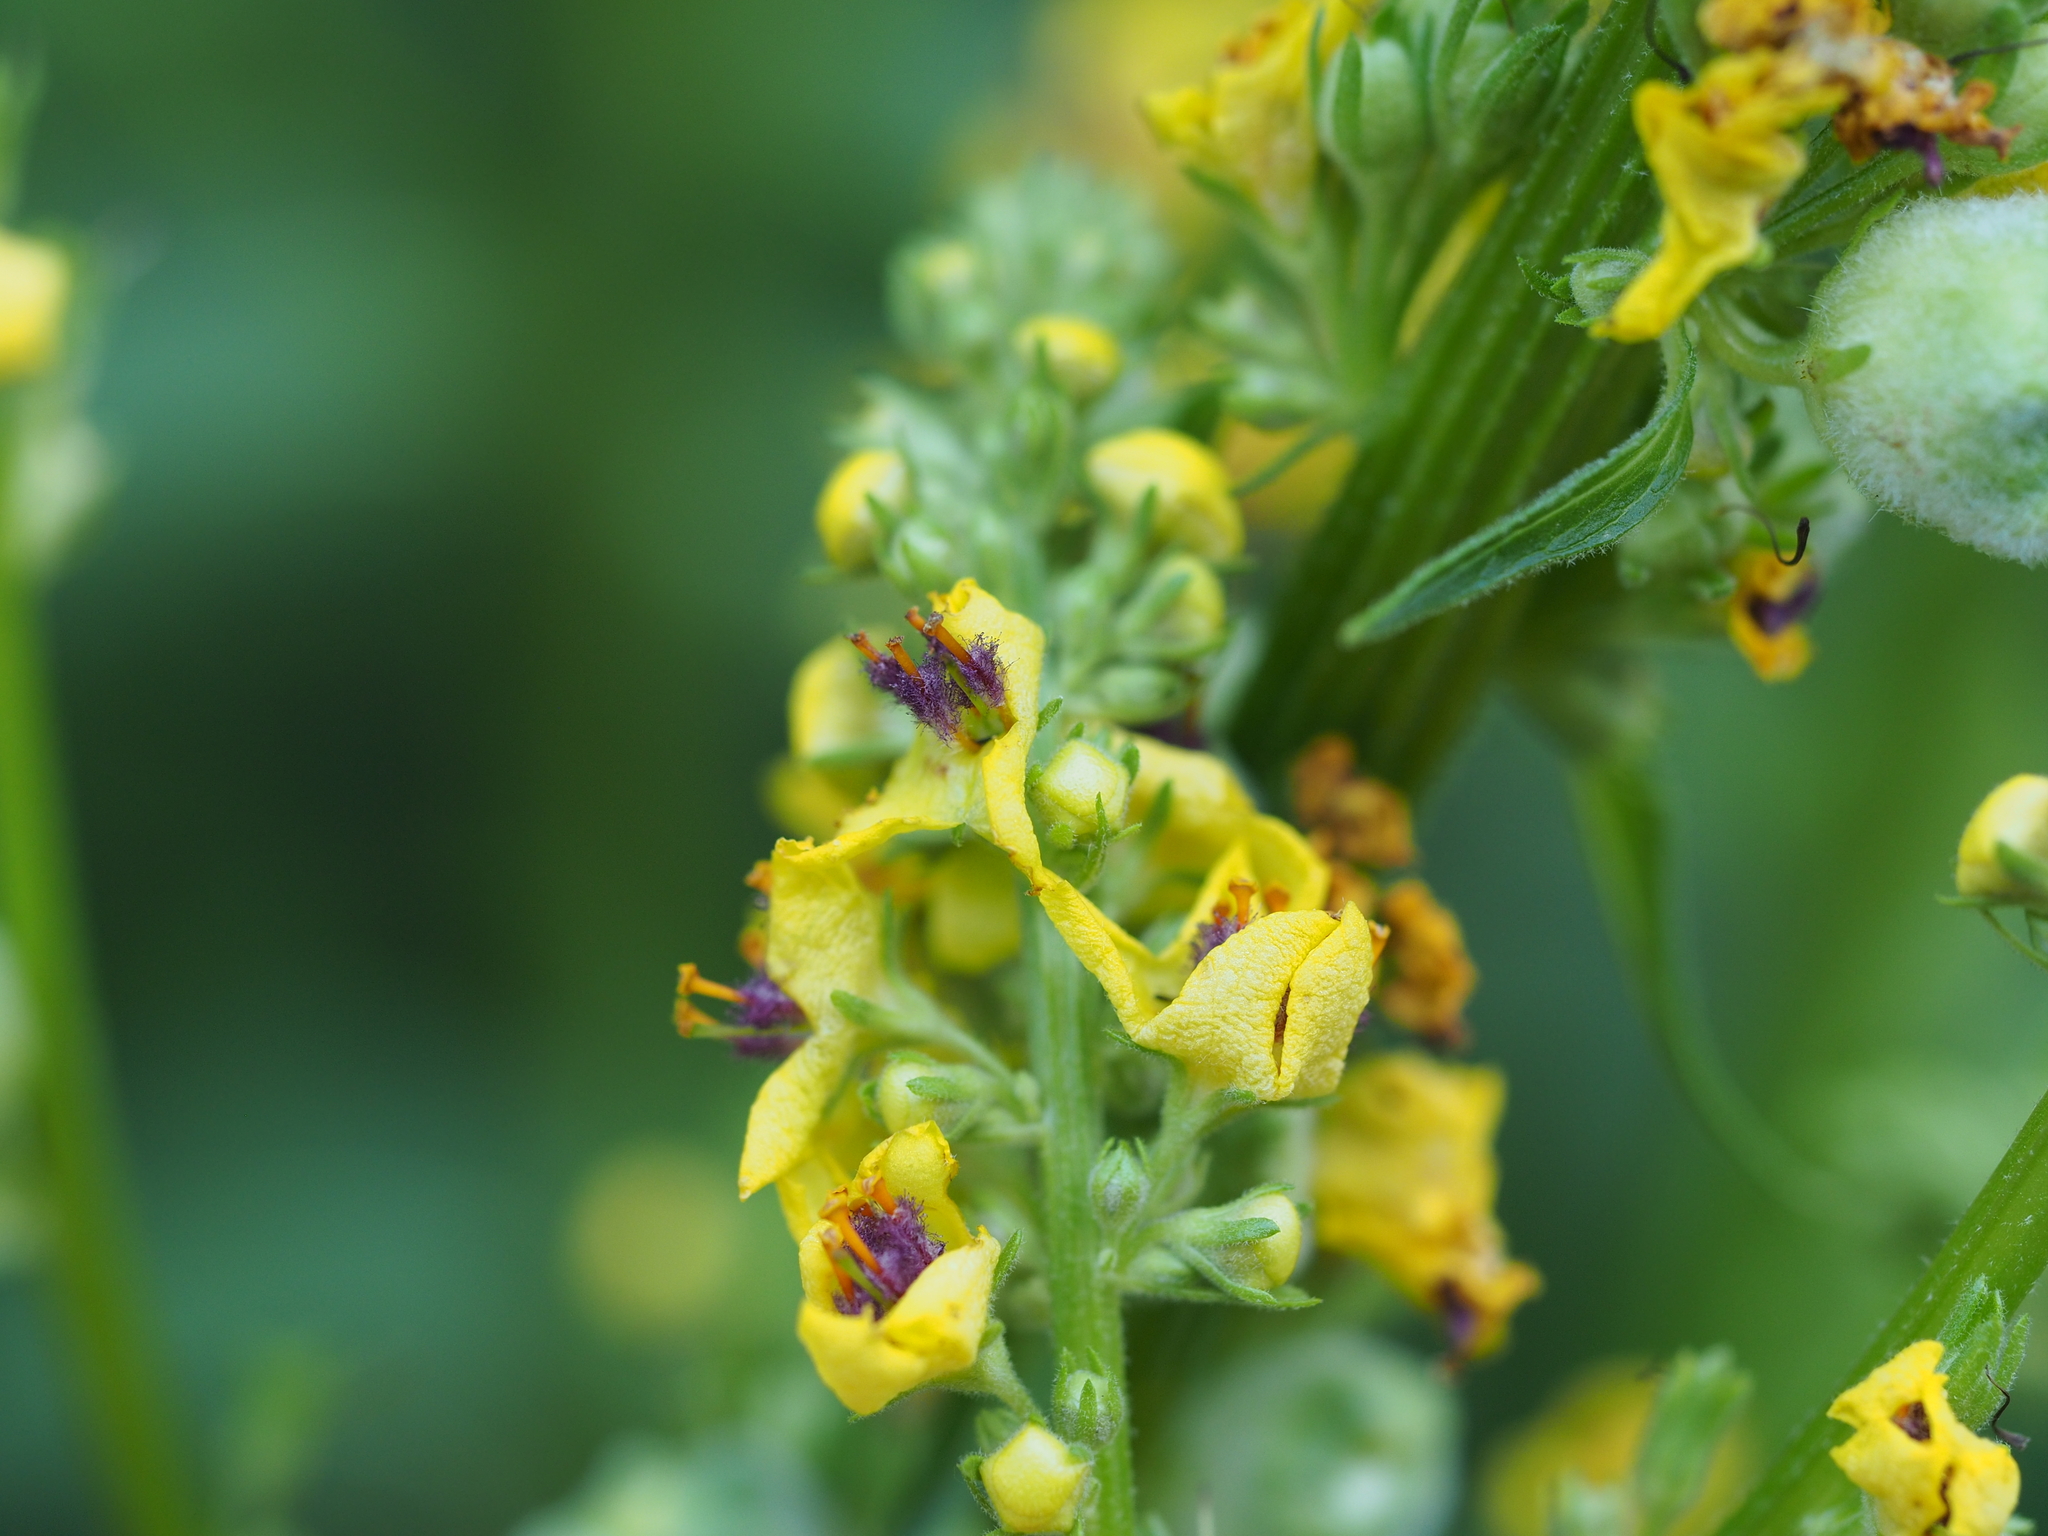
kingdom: Plantae
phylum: Tracheophyta
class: Magnoliopsida
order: Lamiales
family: Scrophulariaceae
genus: Verbascum
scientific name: Verbascum chaixii
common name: Nettle-leaved mullein
